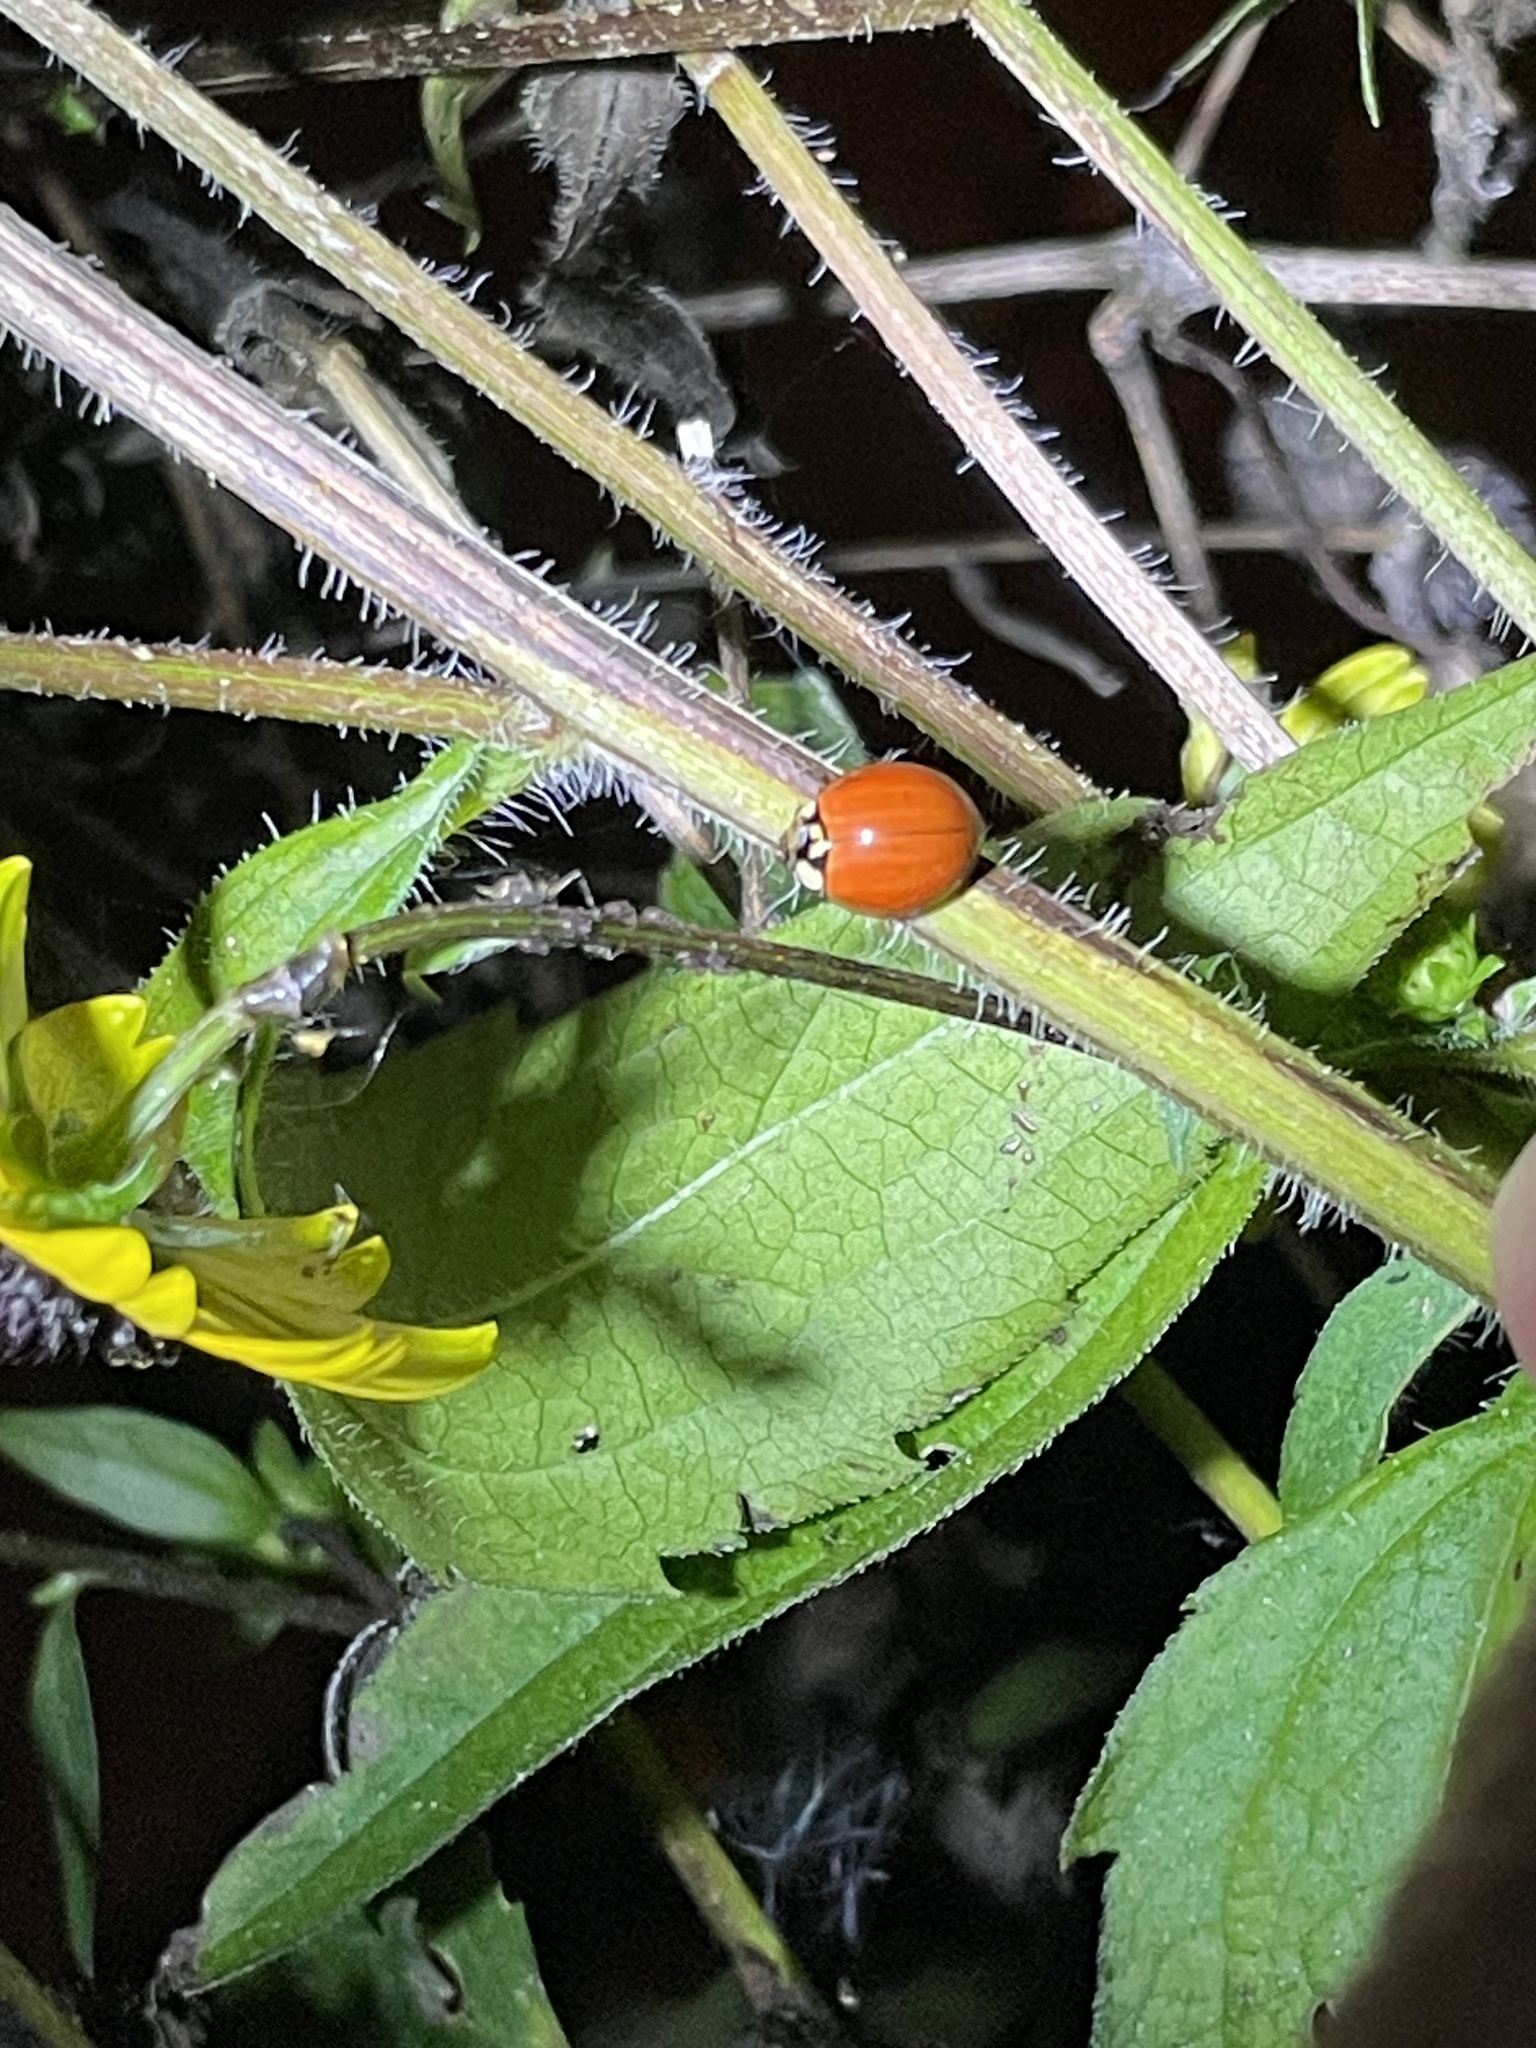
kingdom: Animalia
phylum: Arthropoda
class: Insecta
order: Coleoptera
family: Coccinellidae
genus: Harmonia
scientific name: Harmonia axyridis
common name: Harlequin ladybird
